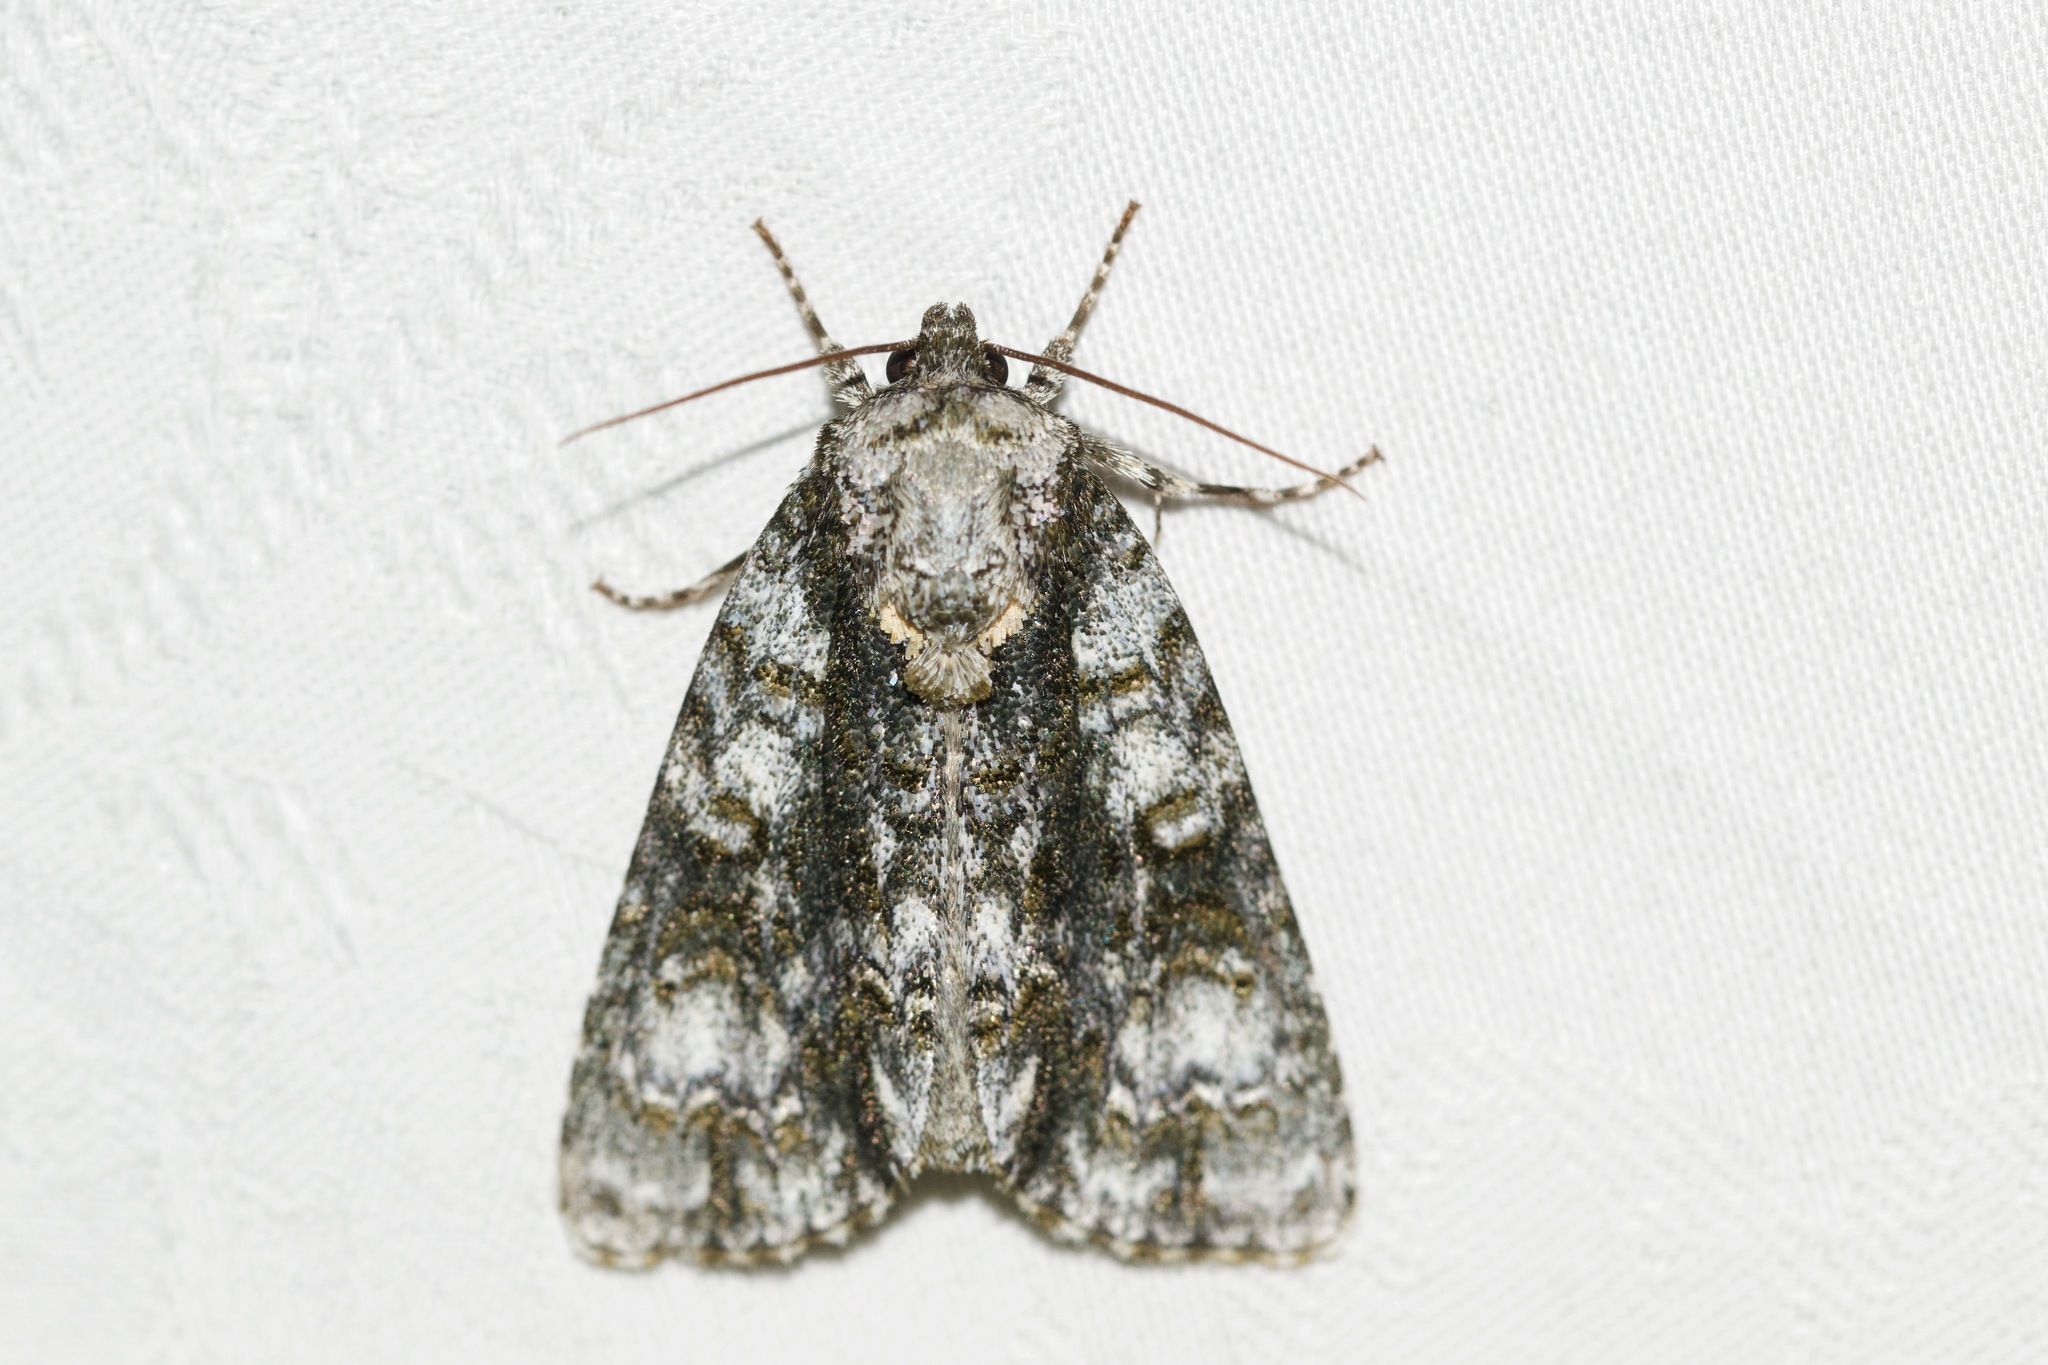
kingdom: Animalia
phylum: Arthropoda
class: Insecta
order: Lepidoptera
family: Noctuidae
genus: Acronicta
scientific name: Acronicta superans
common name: Splendid dagger
